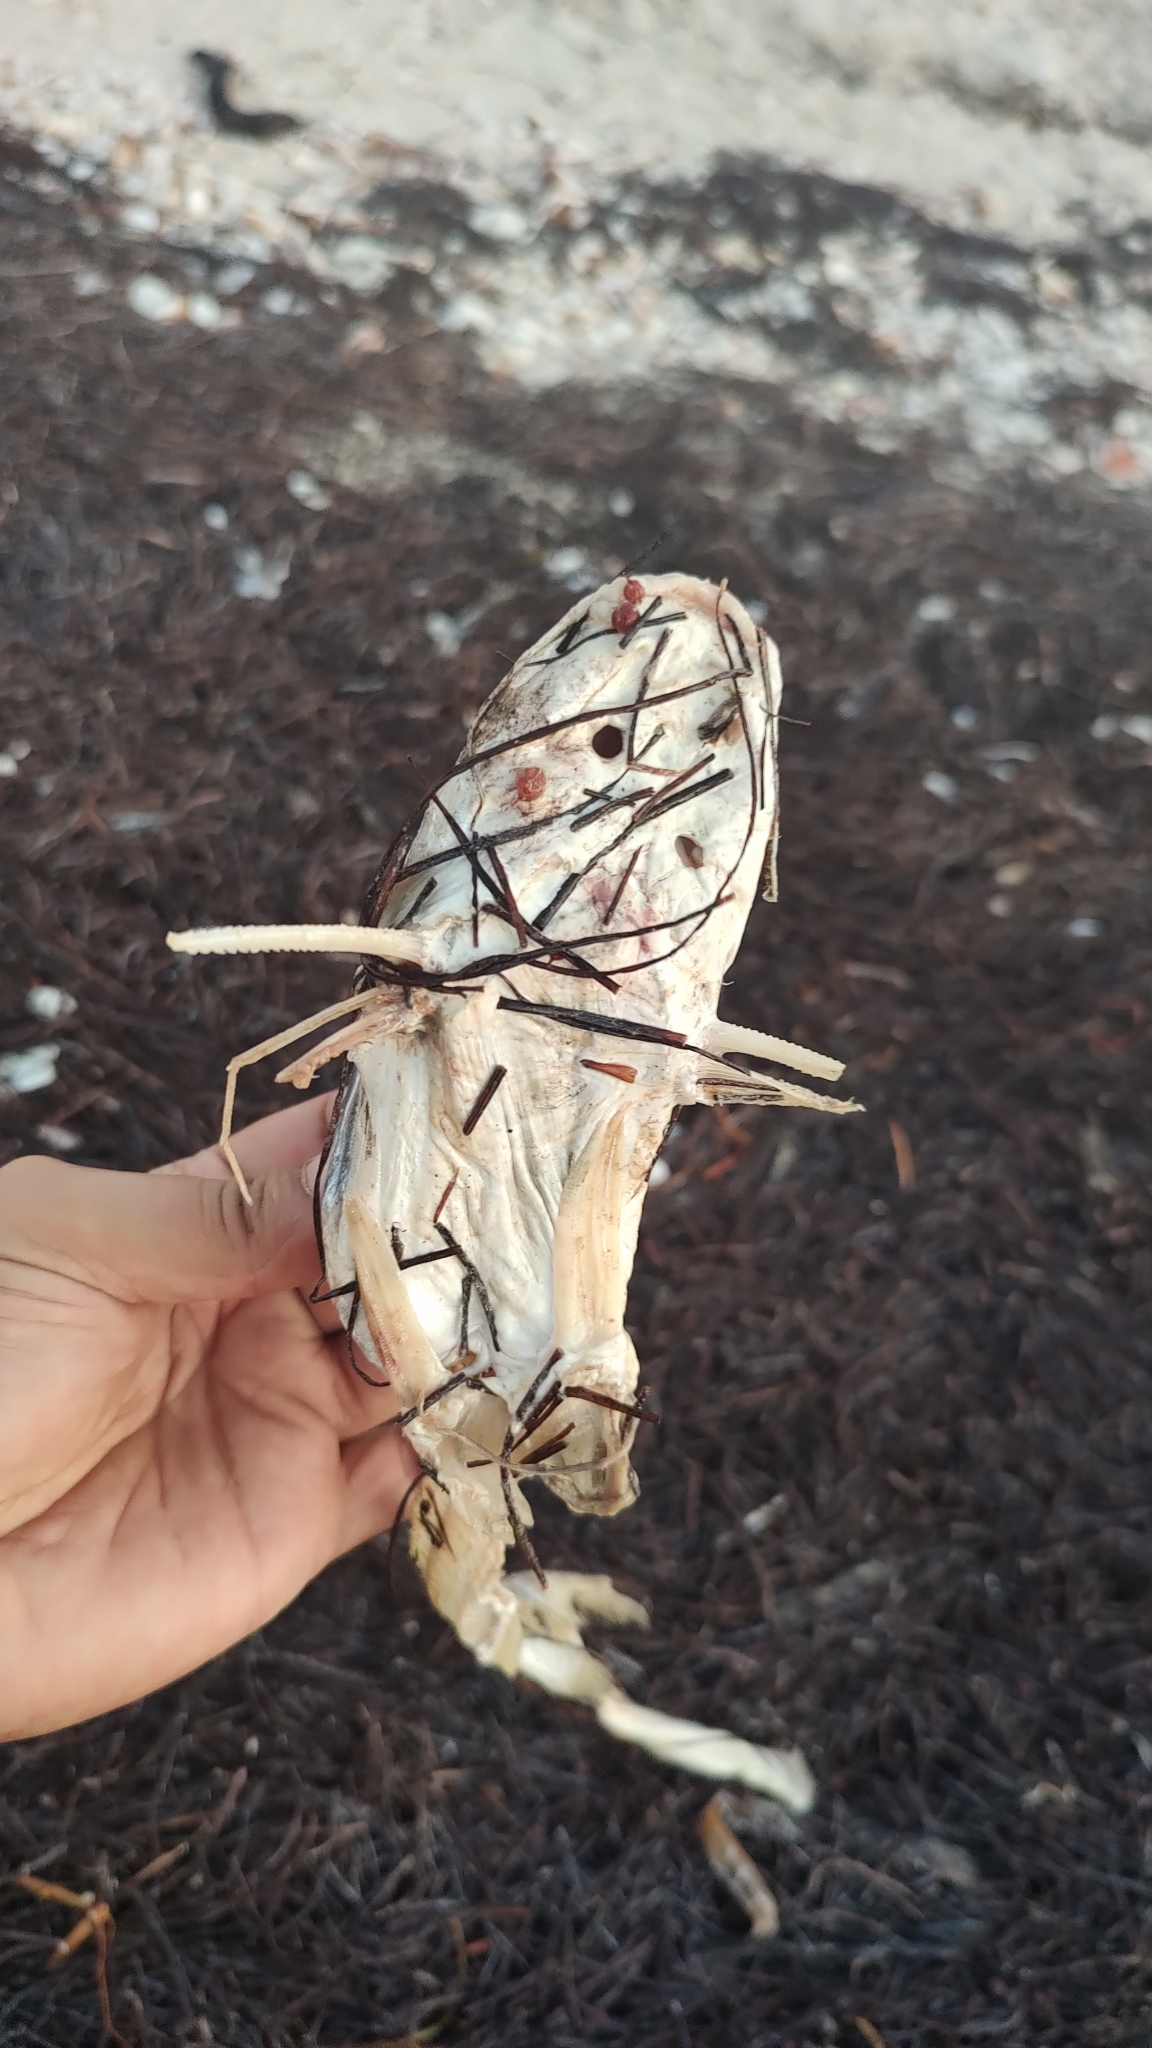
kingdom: Animalia
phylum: Chordata
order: Siluriformes
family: Ariidae
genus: Ariopsis
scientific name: Ariopsis felis
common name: Hardhead catfish
